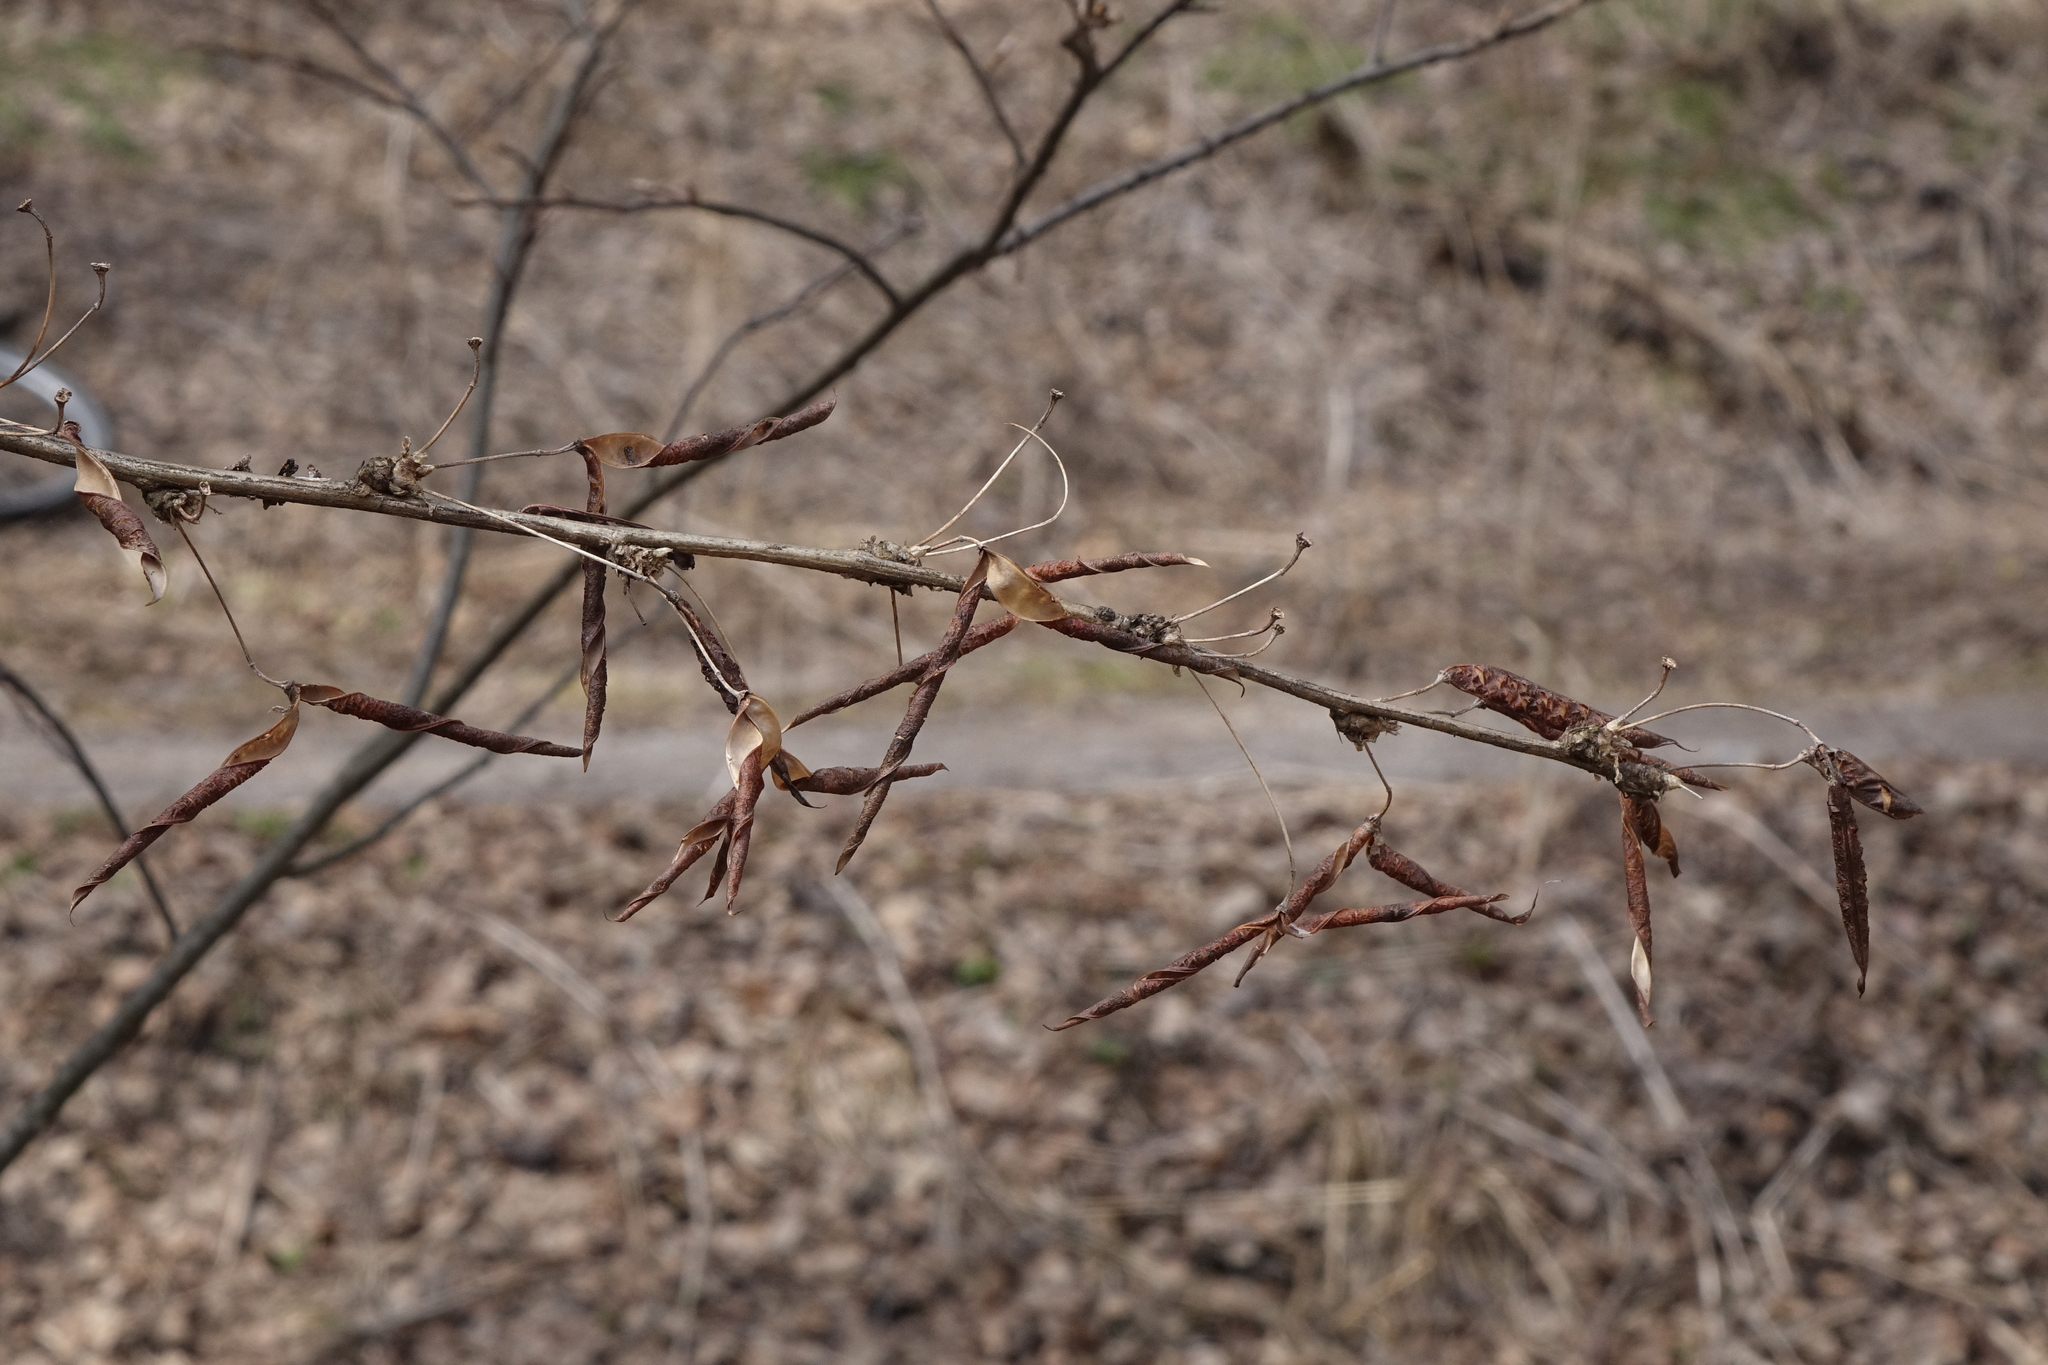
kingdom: Plantae
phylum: Tracheophyta
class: Magnoliopsida
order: Fabales
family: Fabaceae
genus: Caragana
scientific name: Caragana arborescens
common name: Siberian peashrub
